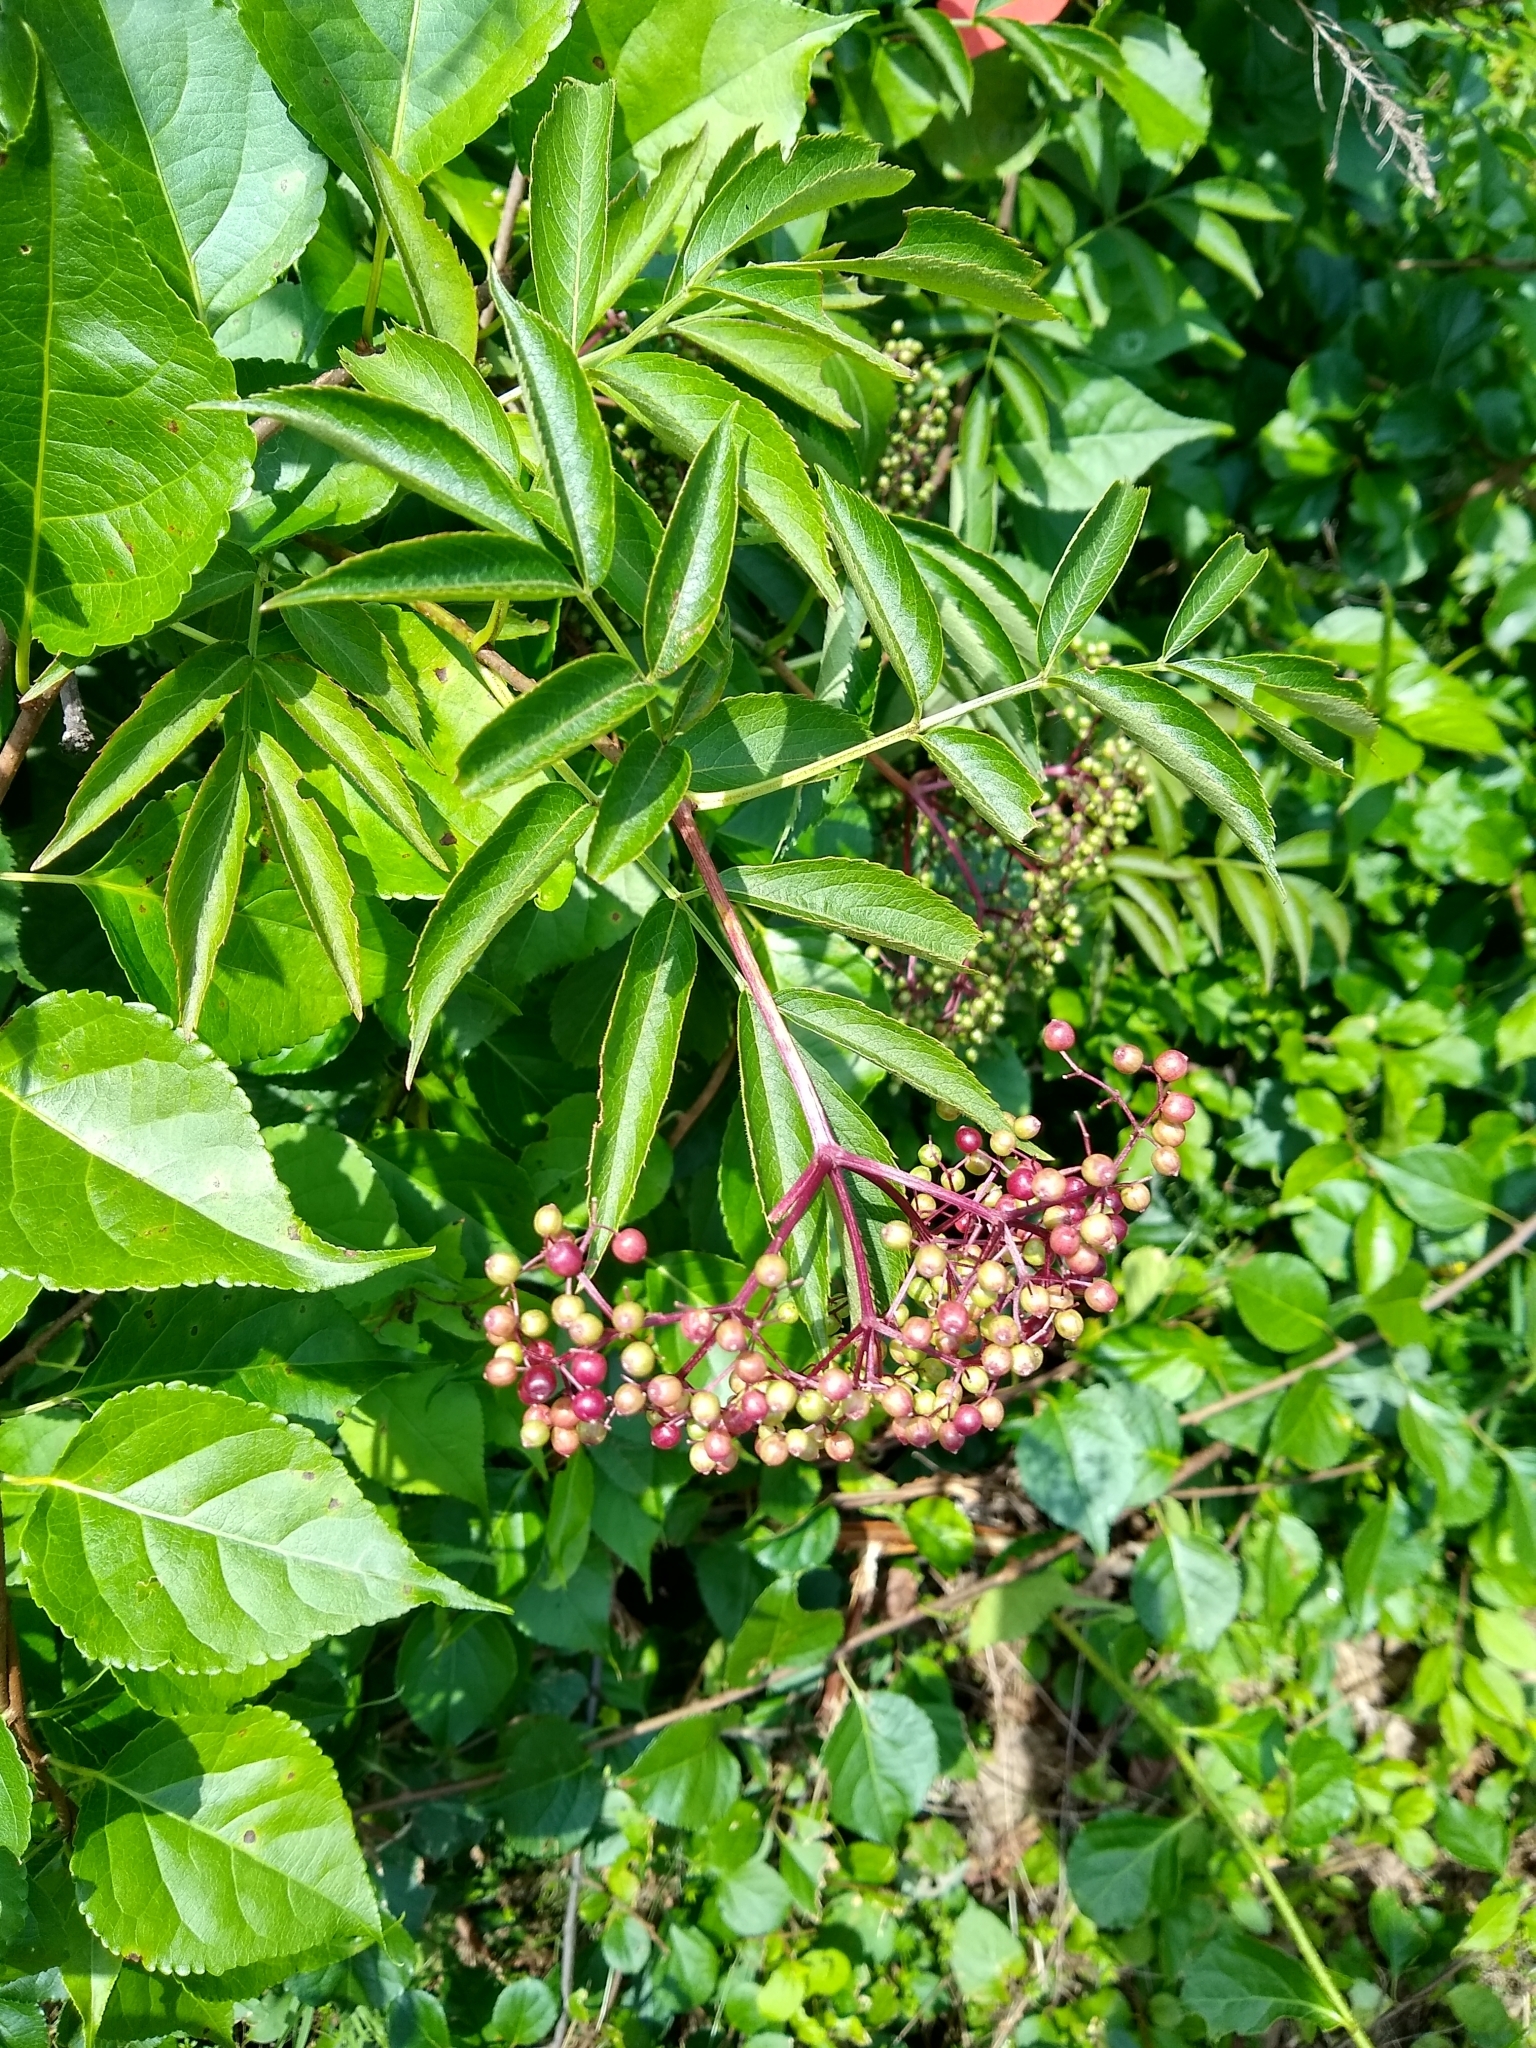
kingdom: Plantae
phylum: Tracheophyta
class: Magnoliopsida
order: Dipsacales
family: Viburnaceae
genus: Sambucus
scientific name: Sambucus canadensis
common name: American elder
